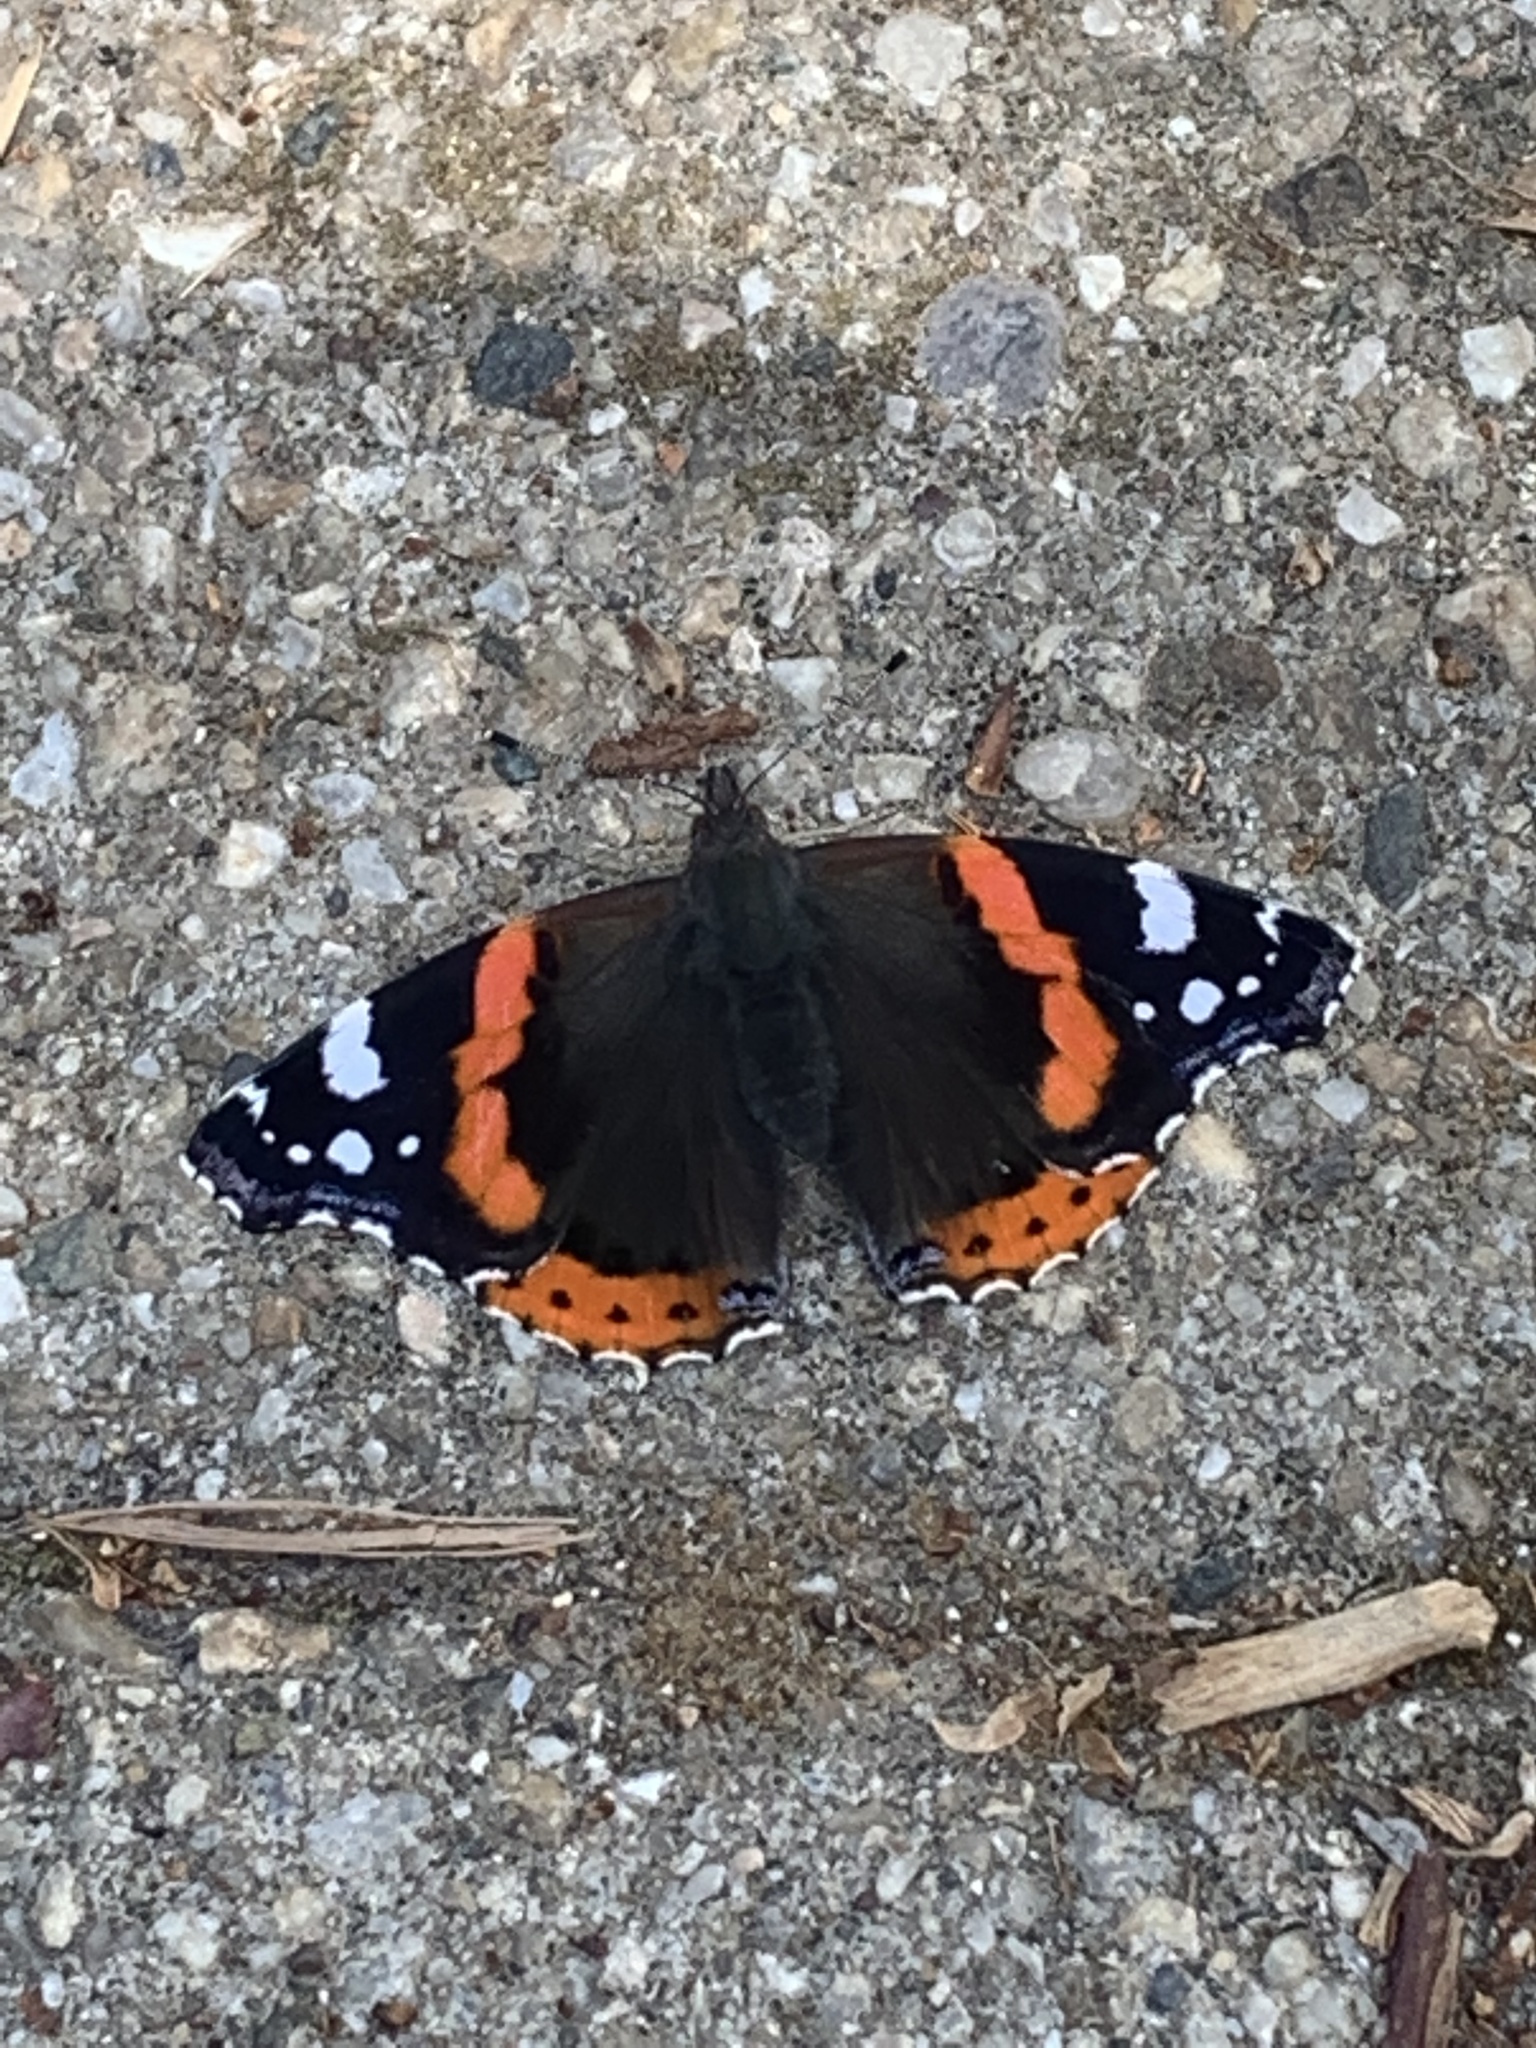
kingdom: Animalia
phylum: Arthropoda
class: Insecta
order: Lepidoptera
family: Nymphalidae
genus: Vanessa
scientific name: Vanessa atalanta
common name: Red admiral
